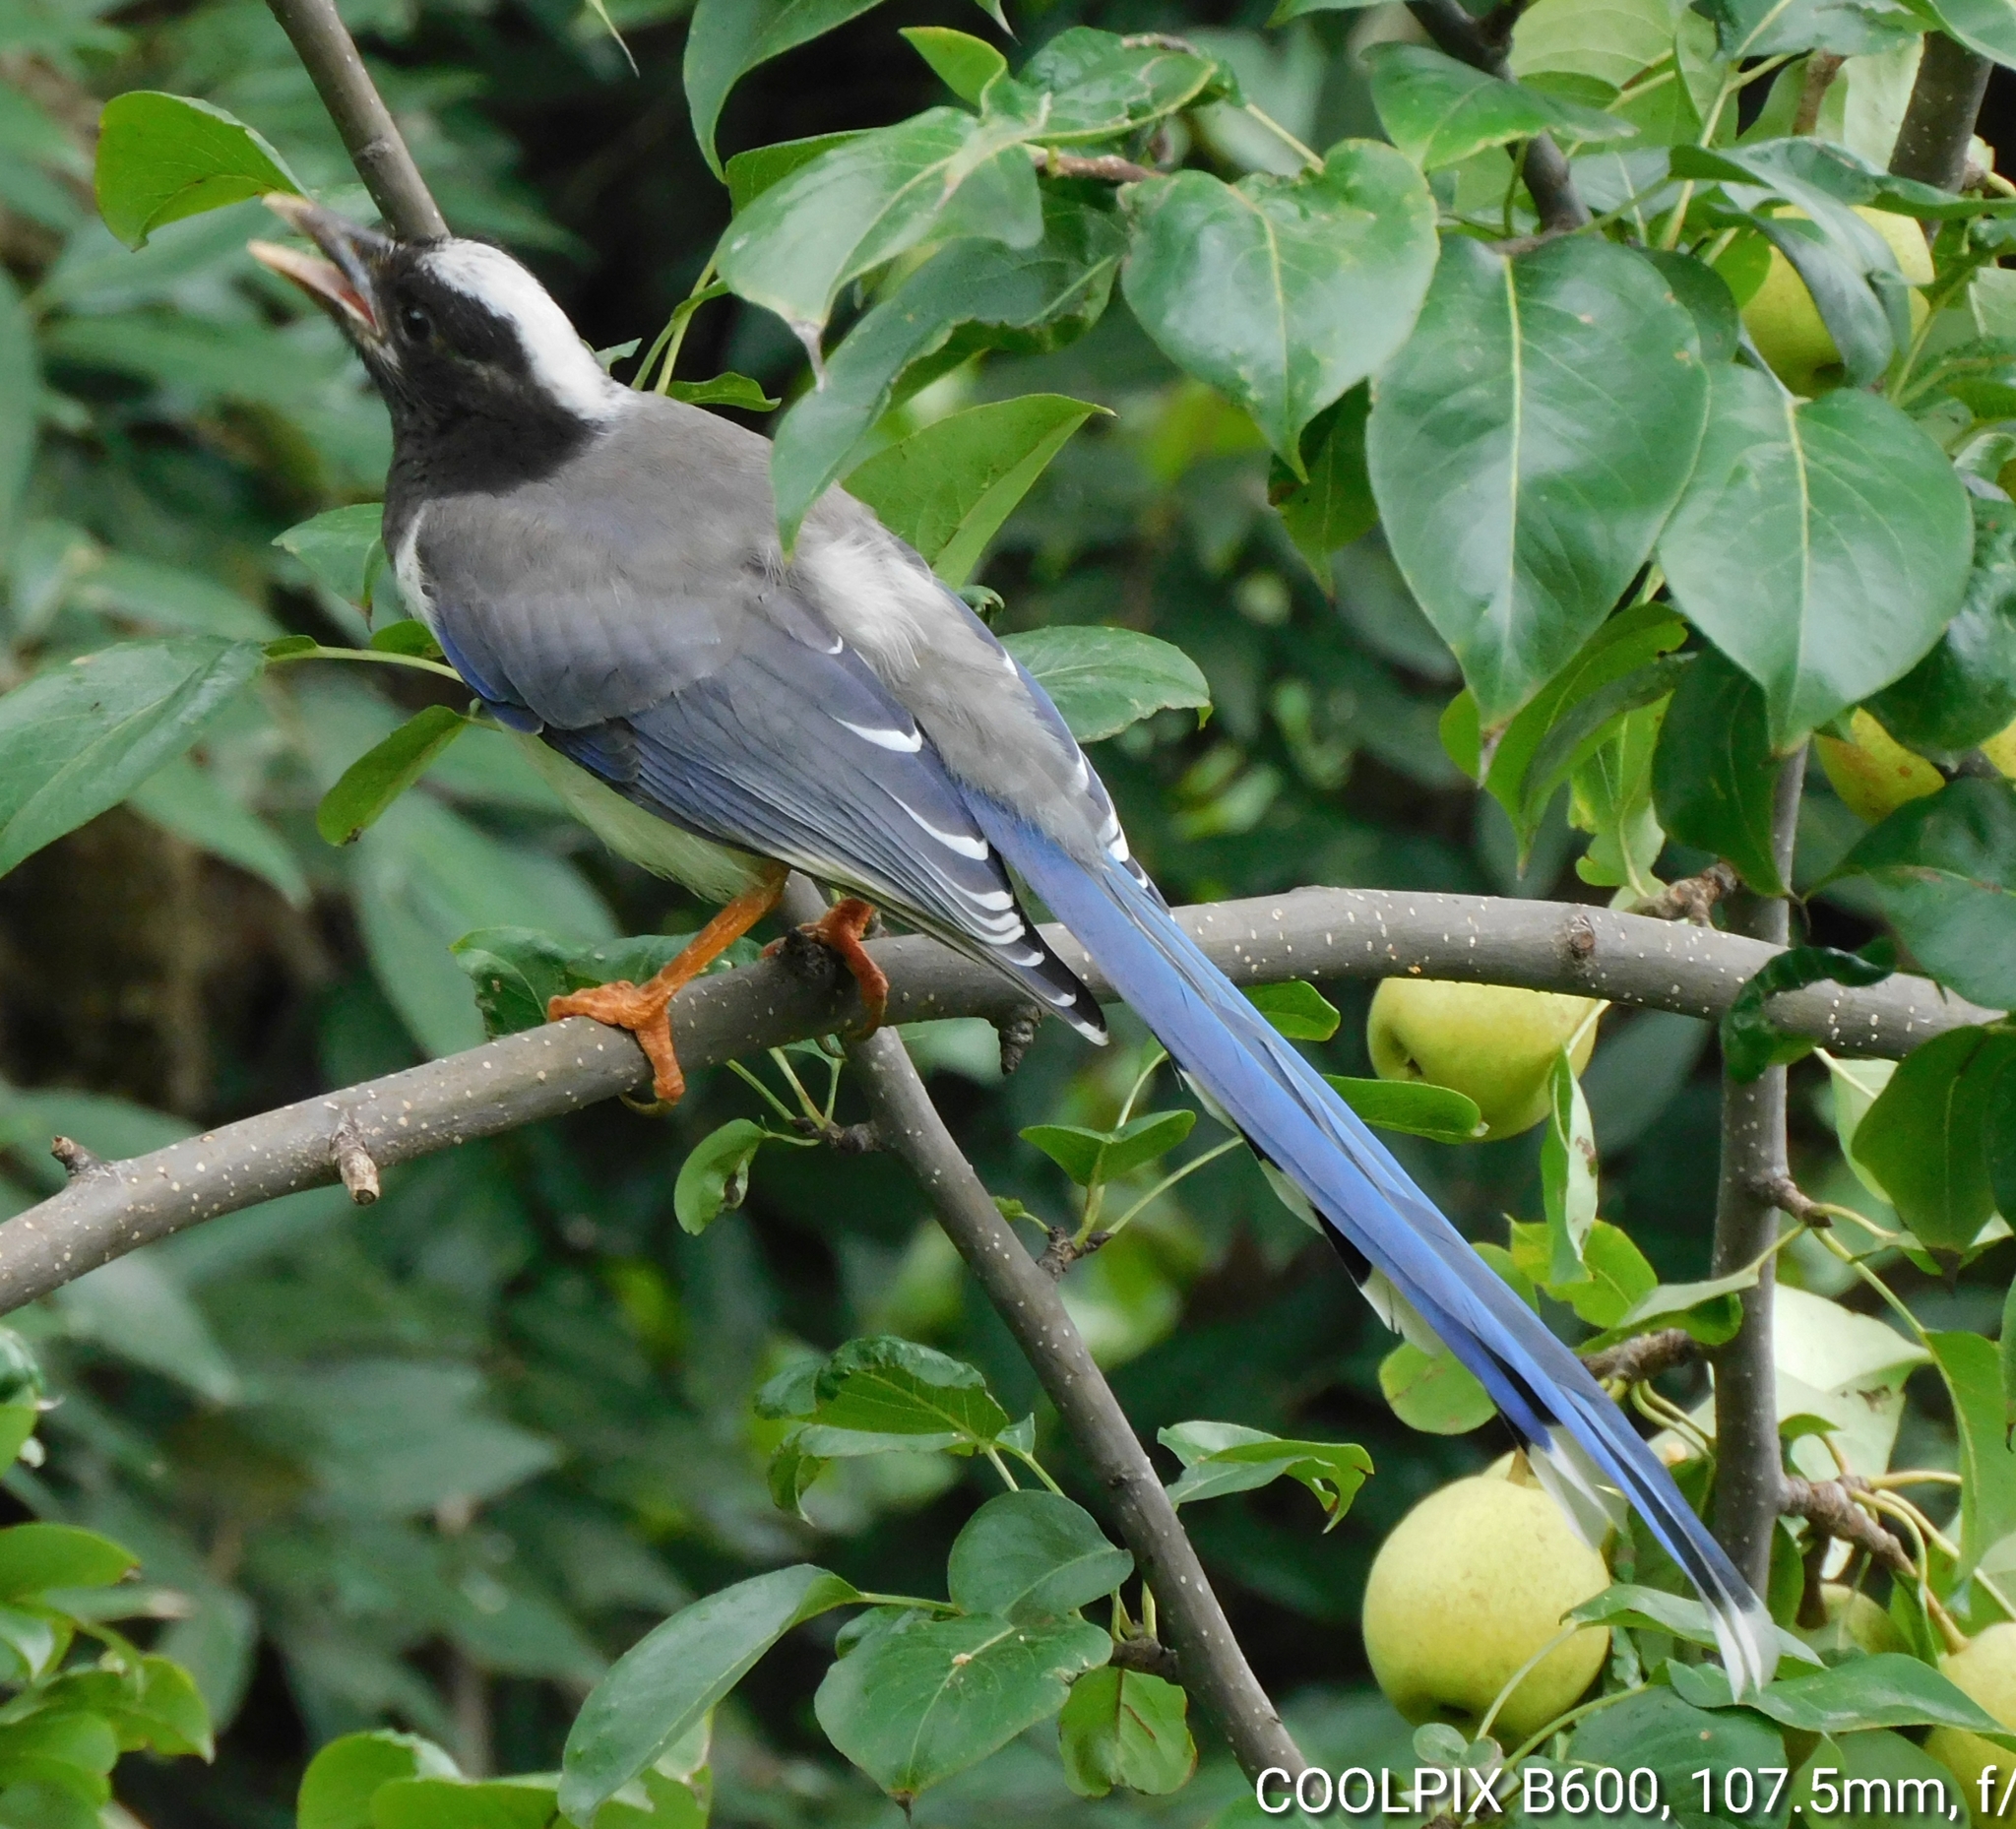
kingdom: Animalia
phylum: Chordata
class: Aves
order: Passeriformes
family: Corvidae
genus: Urocissa
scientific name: Urocissa erythroryncha
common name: Red-billed blue magpie
